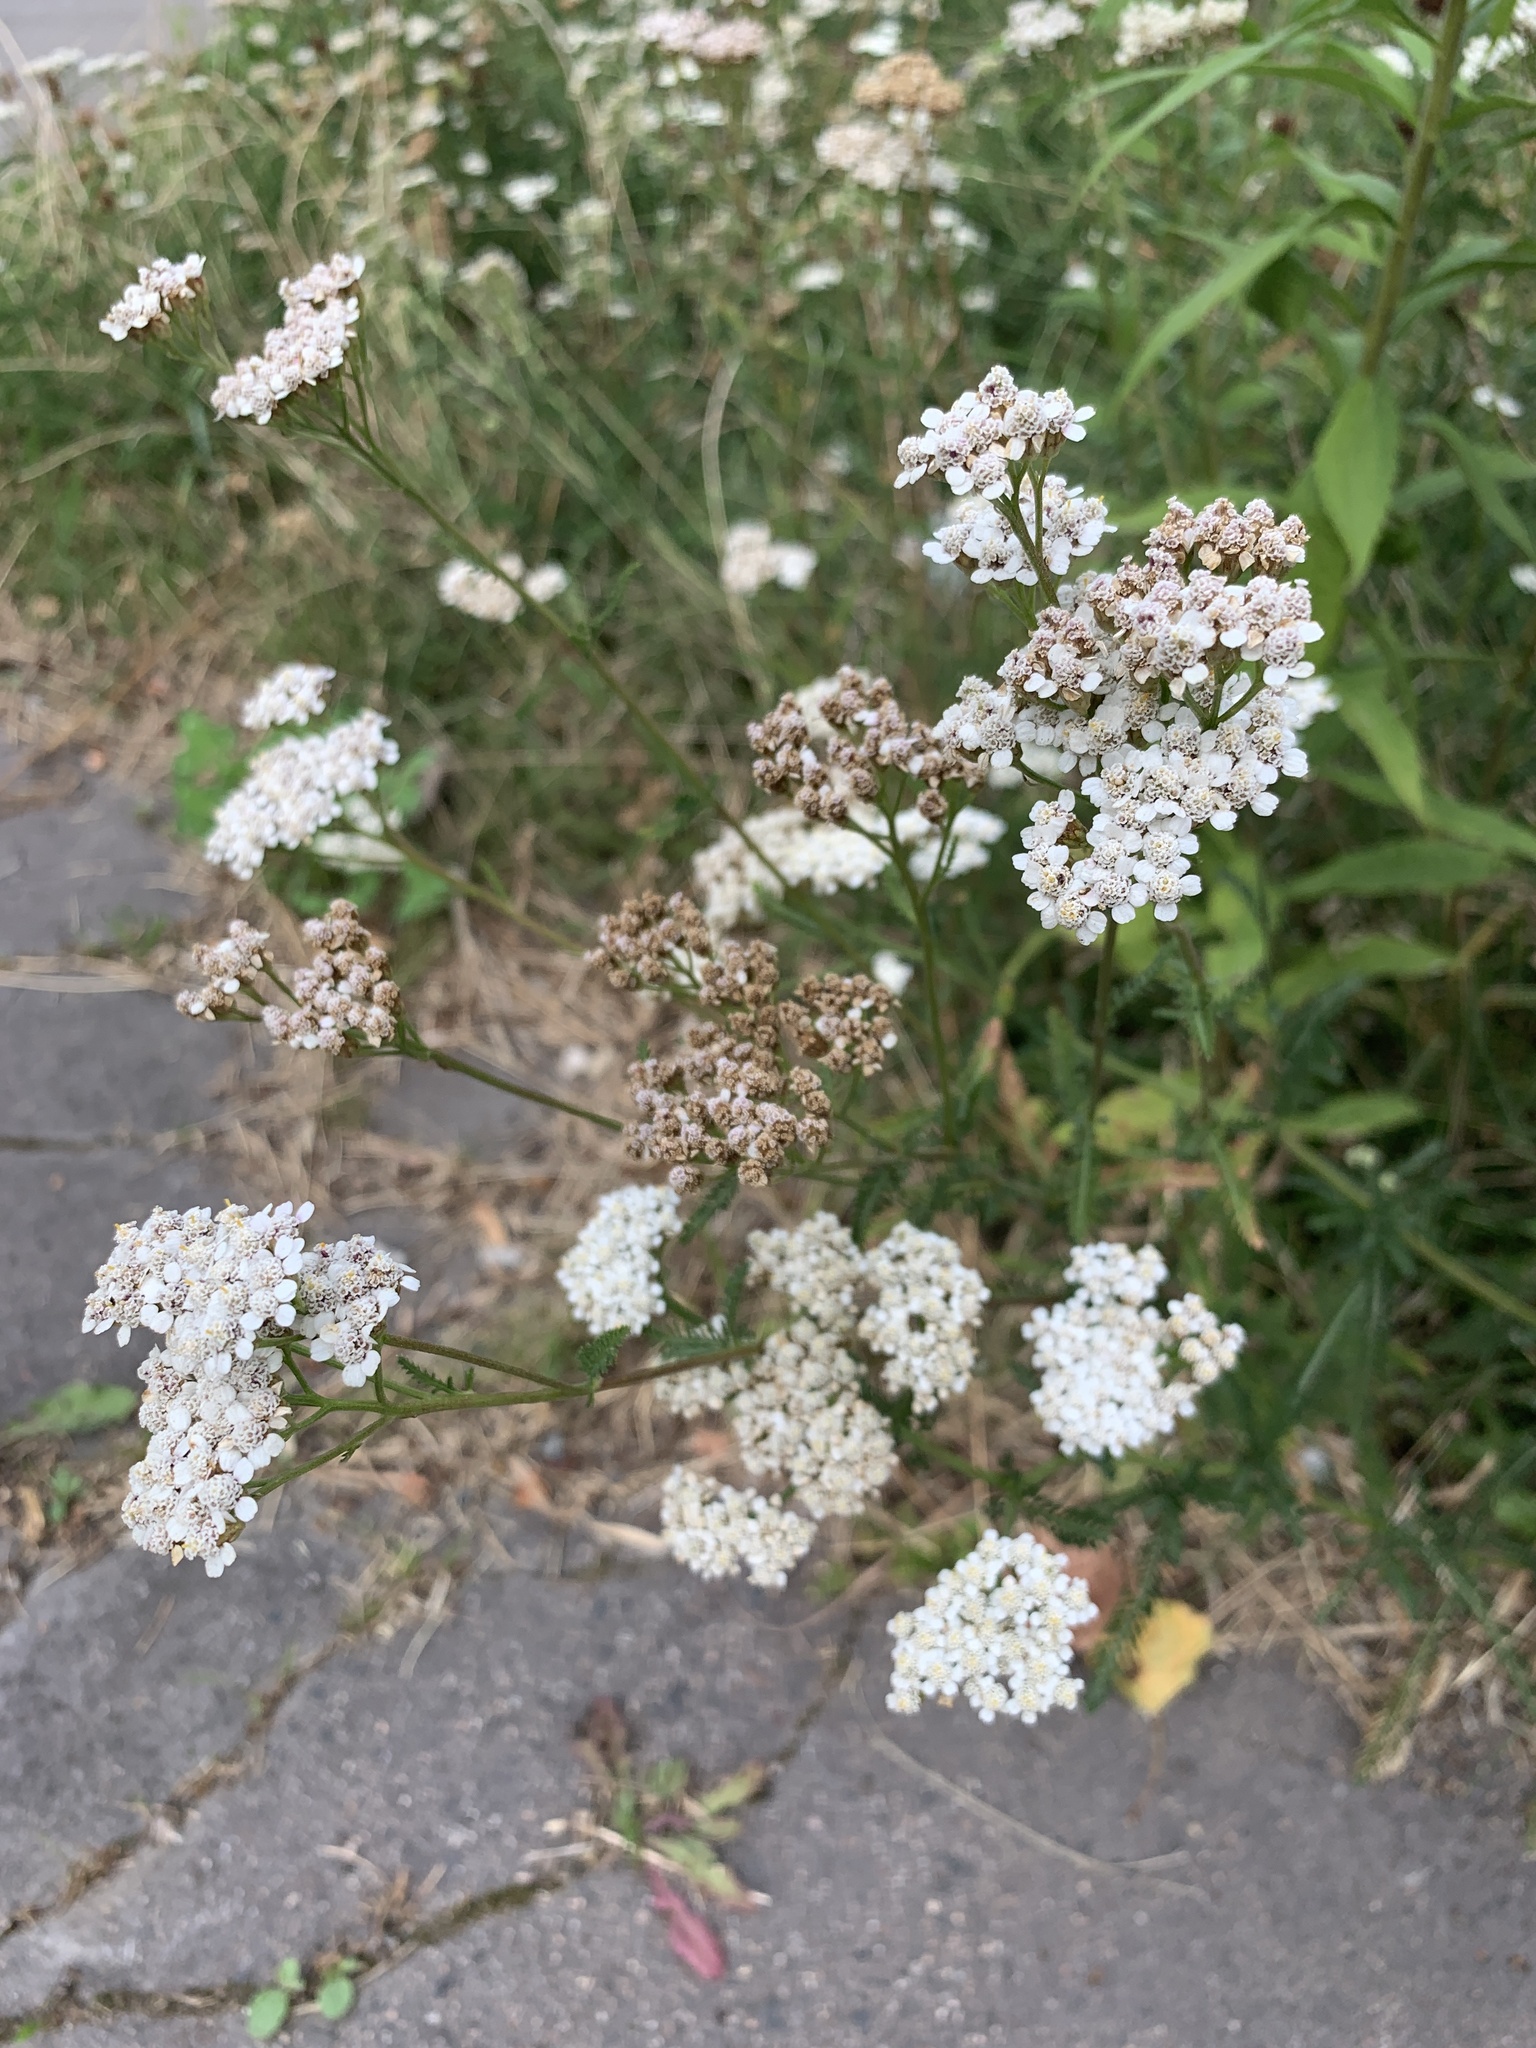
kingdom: Plantae
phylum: Tracheophyta
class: Magnoliopsida
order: Asterales
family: Asteraceae
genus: Achillea
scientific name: Achillea millefolium
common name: Yarrow
